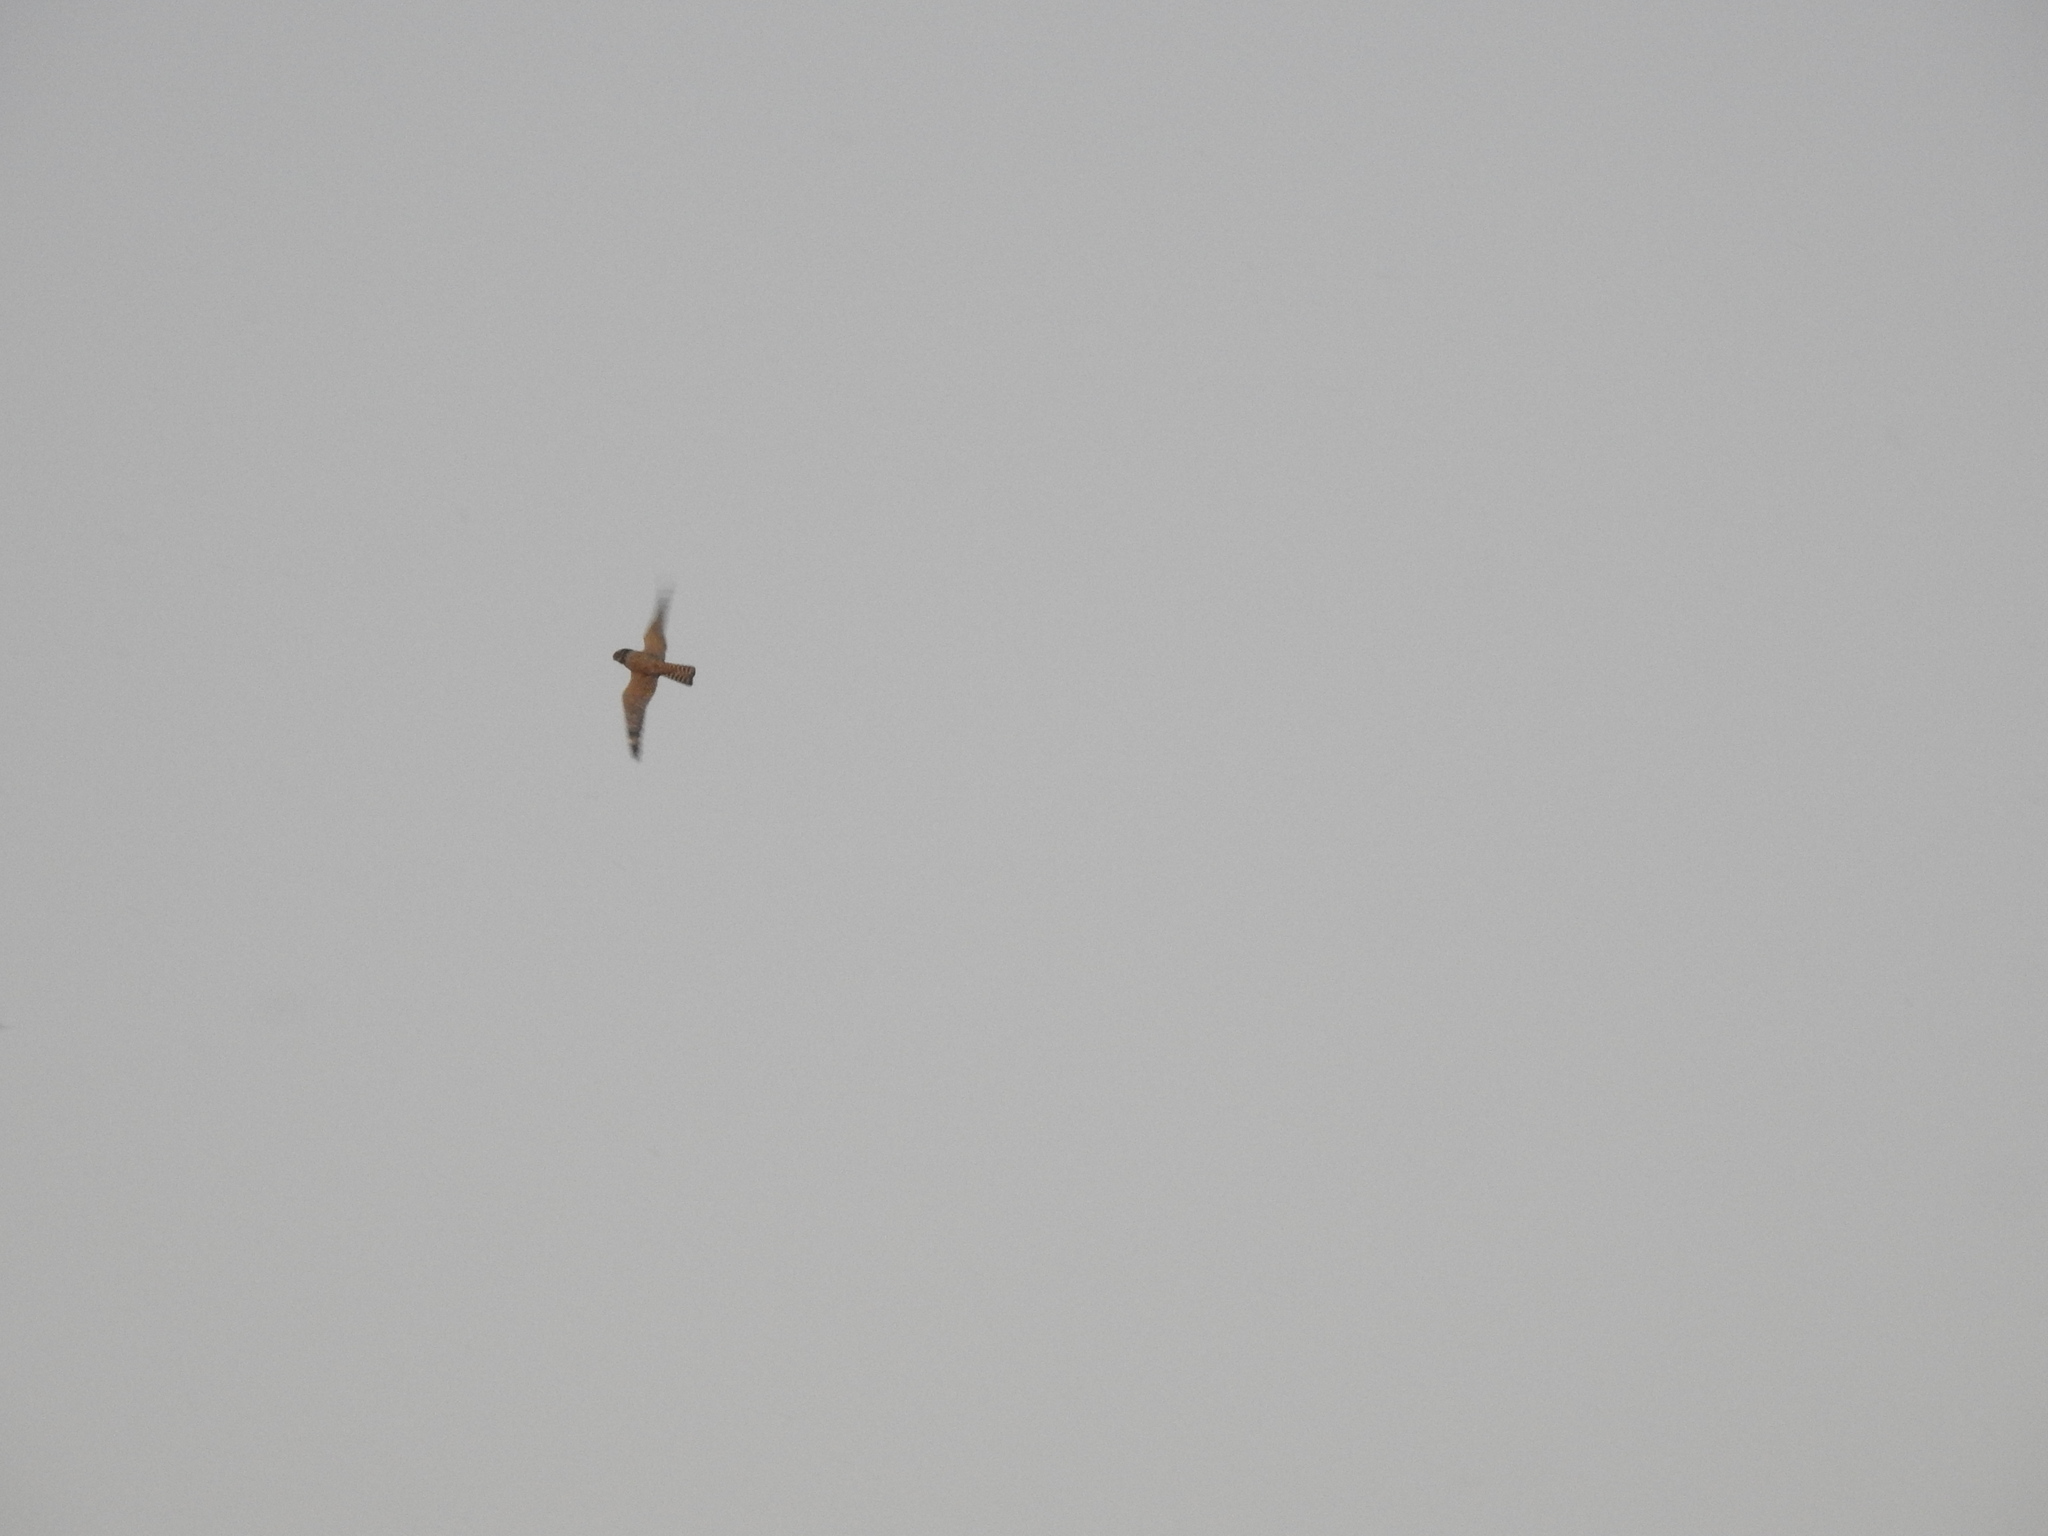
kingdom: Animalia
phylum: Chordata
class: Aves
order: Caprimulgiformes
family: Caprimulgidae
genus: Chordeiles
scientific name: Chordeiles acutipennis
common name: Lesser nighthawk
